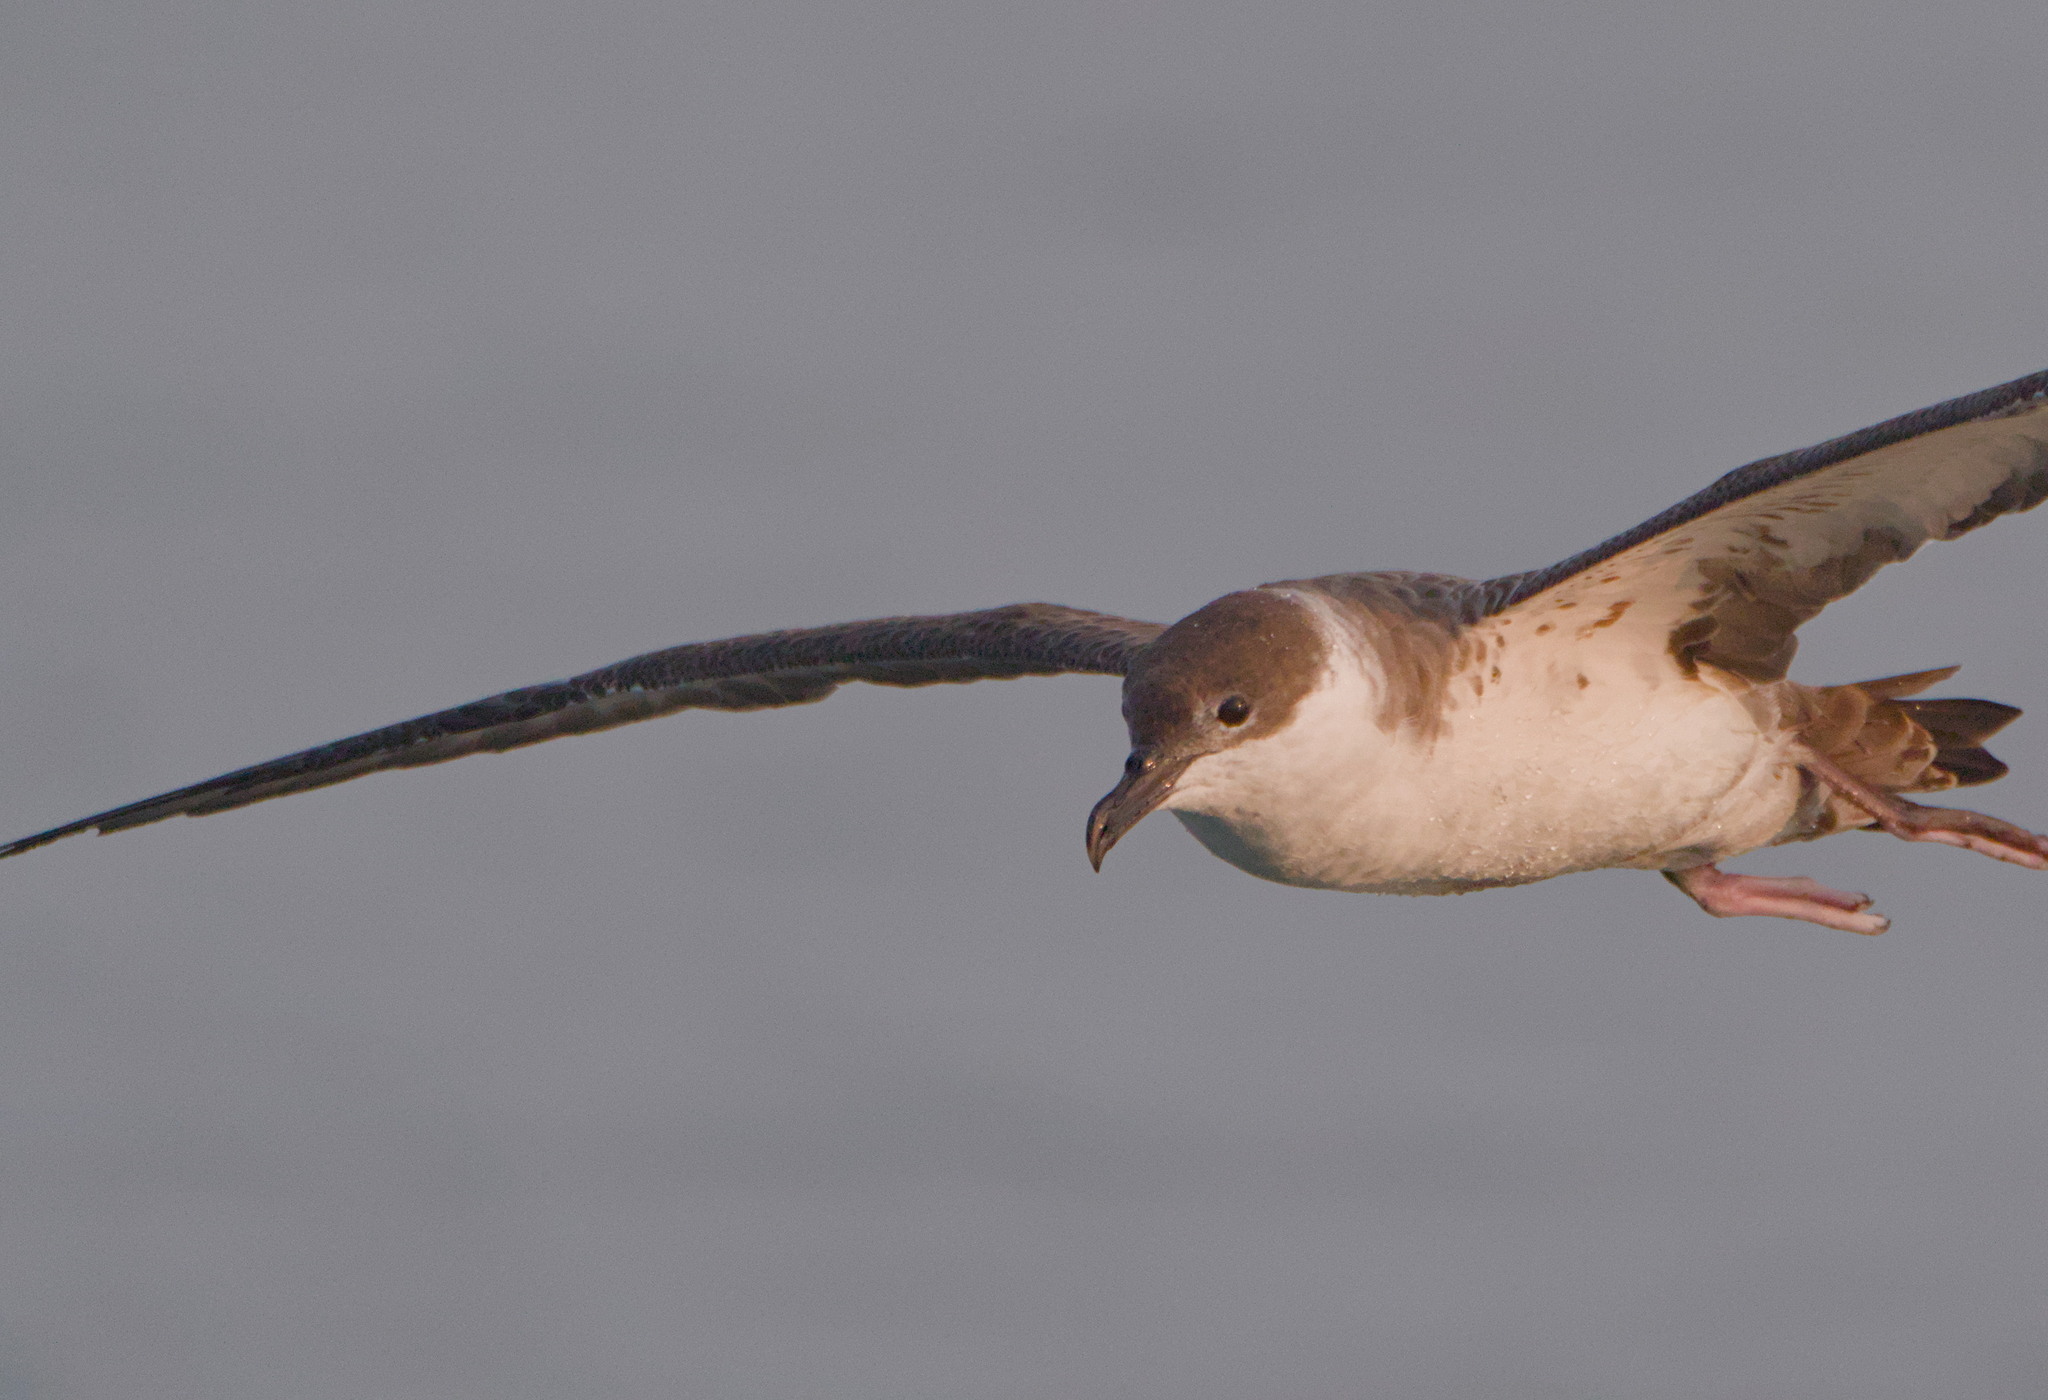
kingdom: Animalia
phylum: Chordata
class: Aves
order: Procellariiformes
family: Procellariidae
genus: Puffinus
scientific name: Puffinus gravis
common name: Great shearwater
